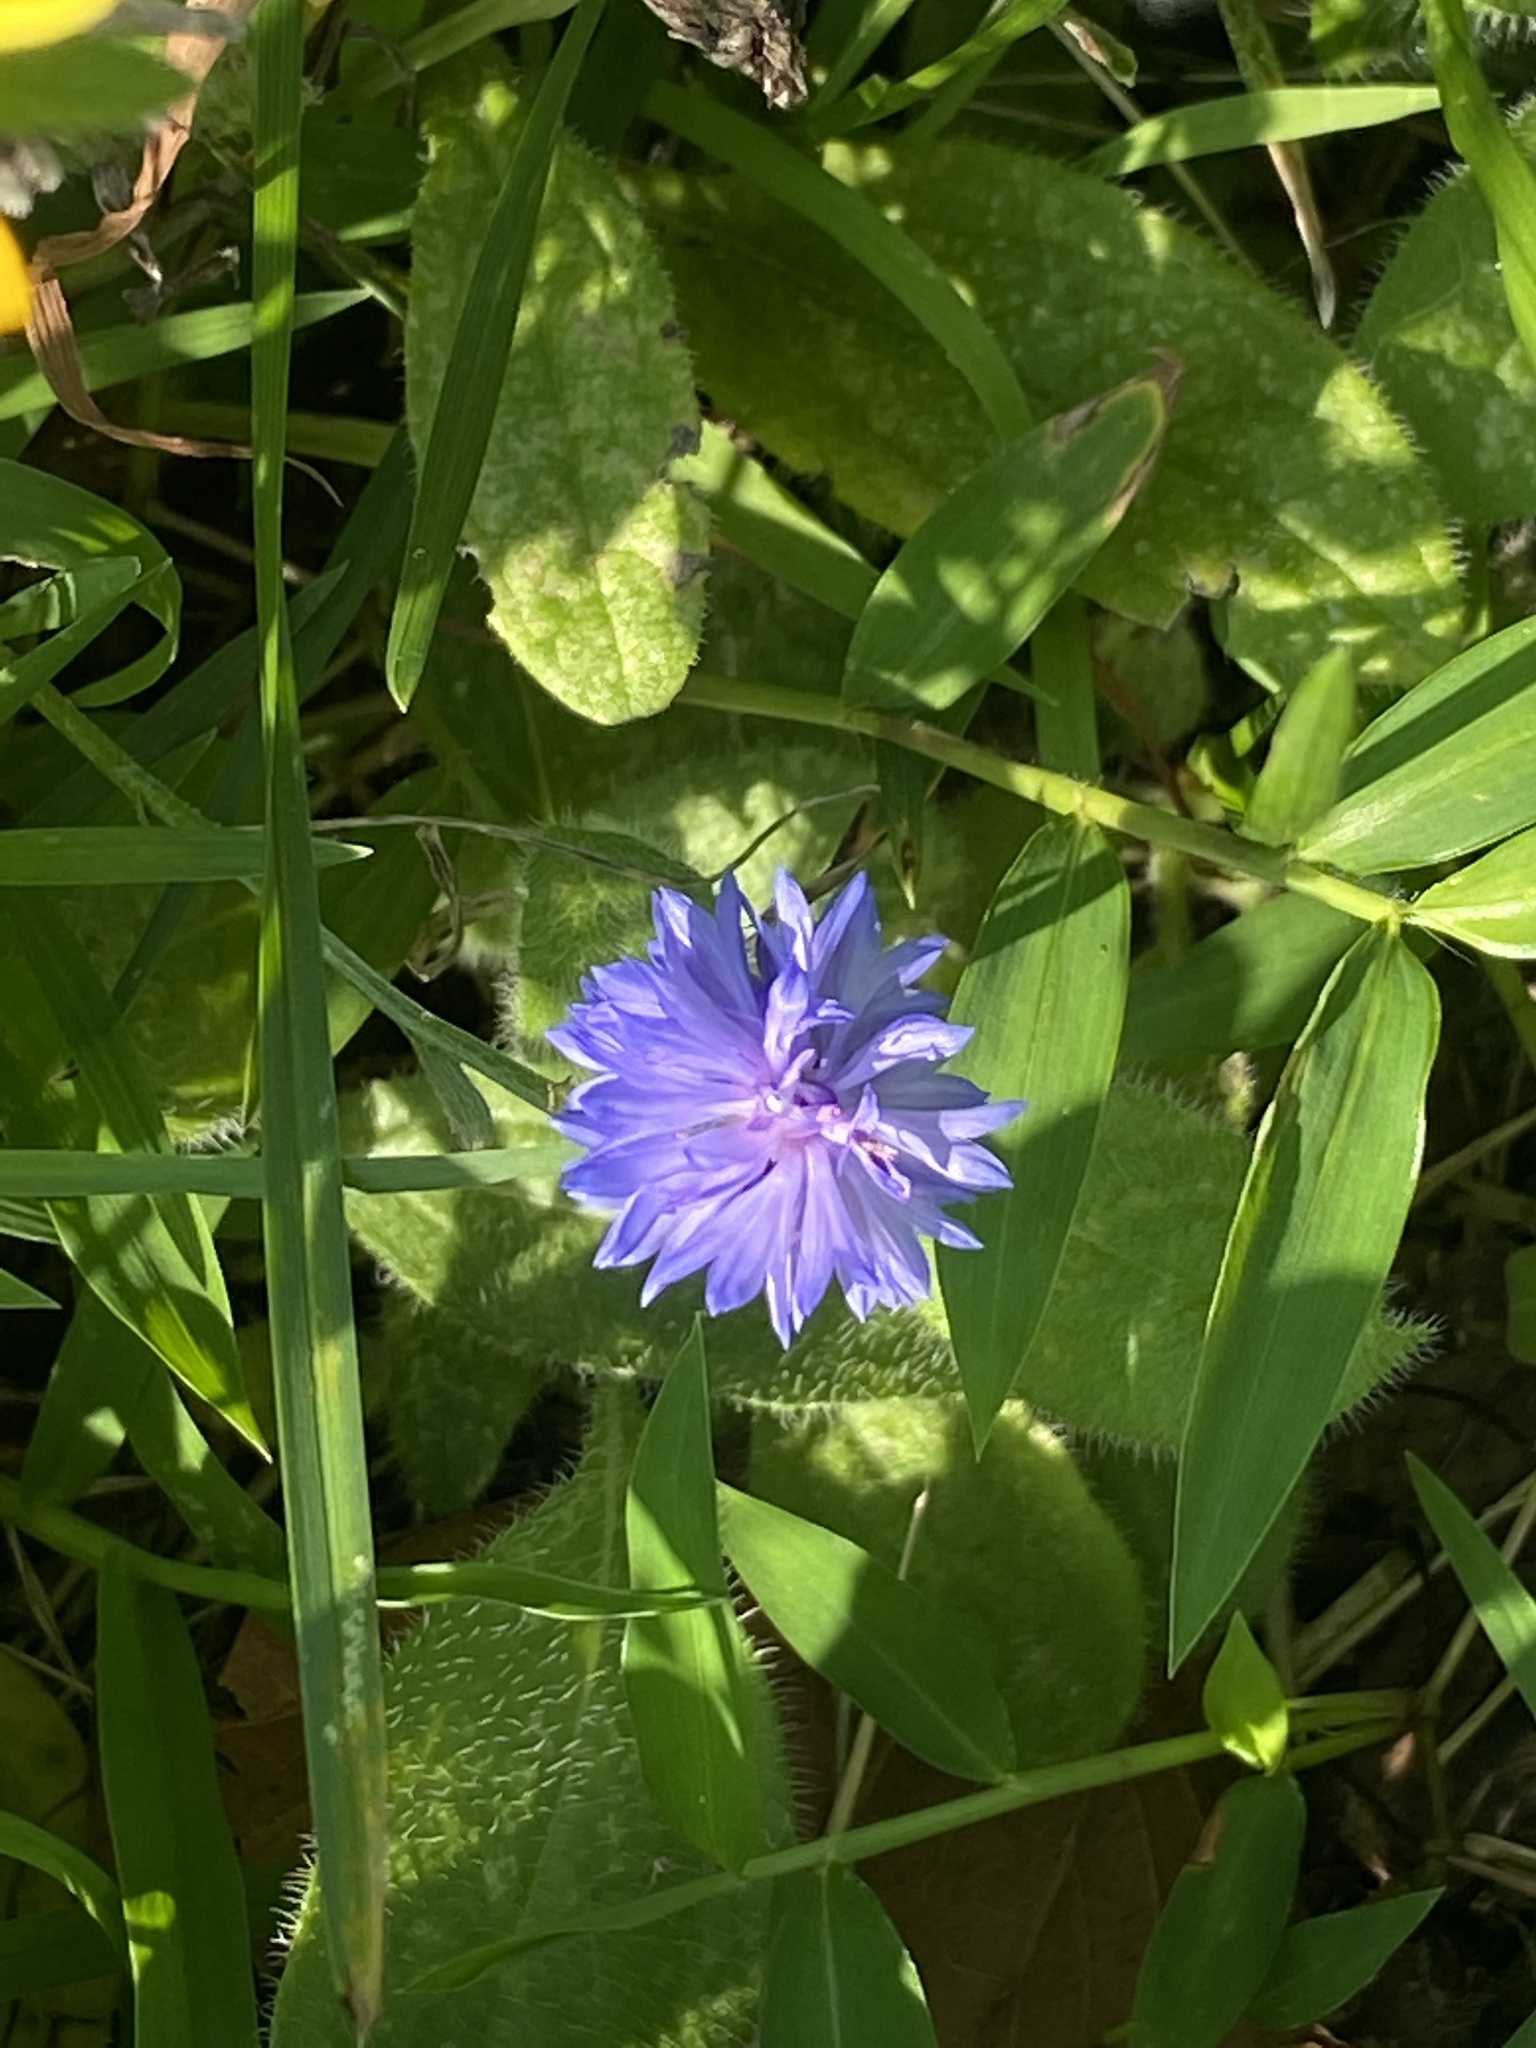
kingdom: Plantae
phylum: Tracheophyta
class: Magnoliopsida
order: Asterales
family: Asteraceae
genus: Centaurea
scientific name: Centaurea cyanus
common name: Cornflower
